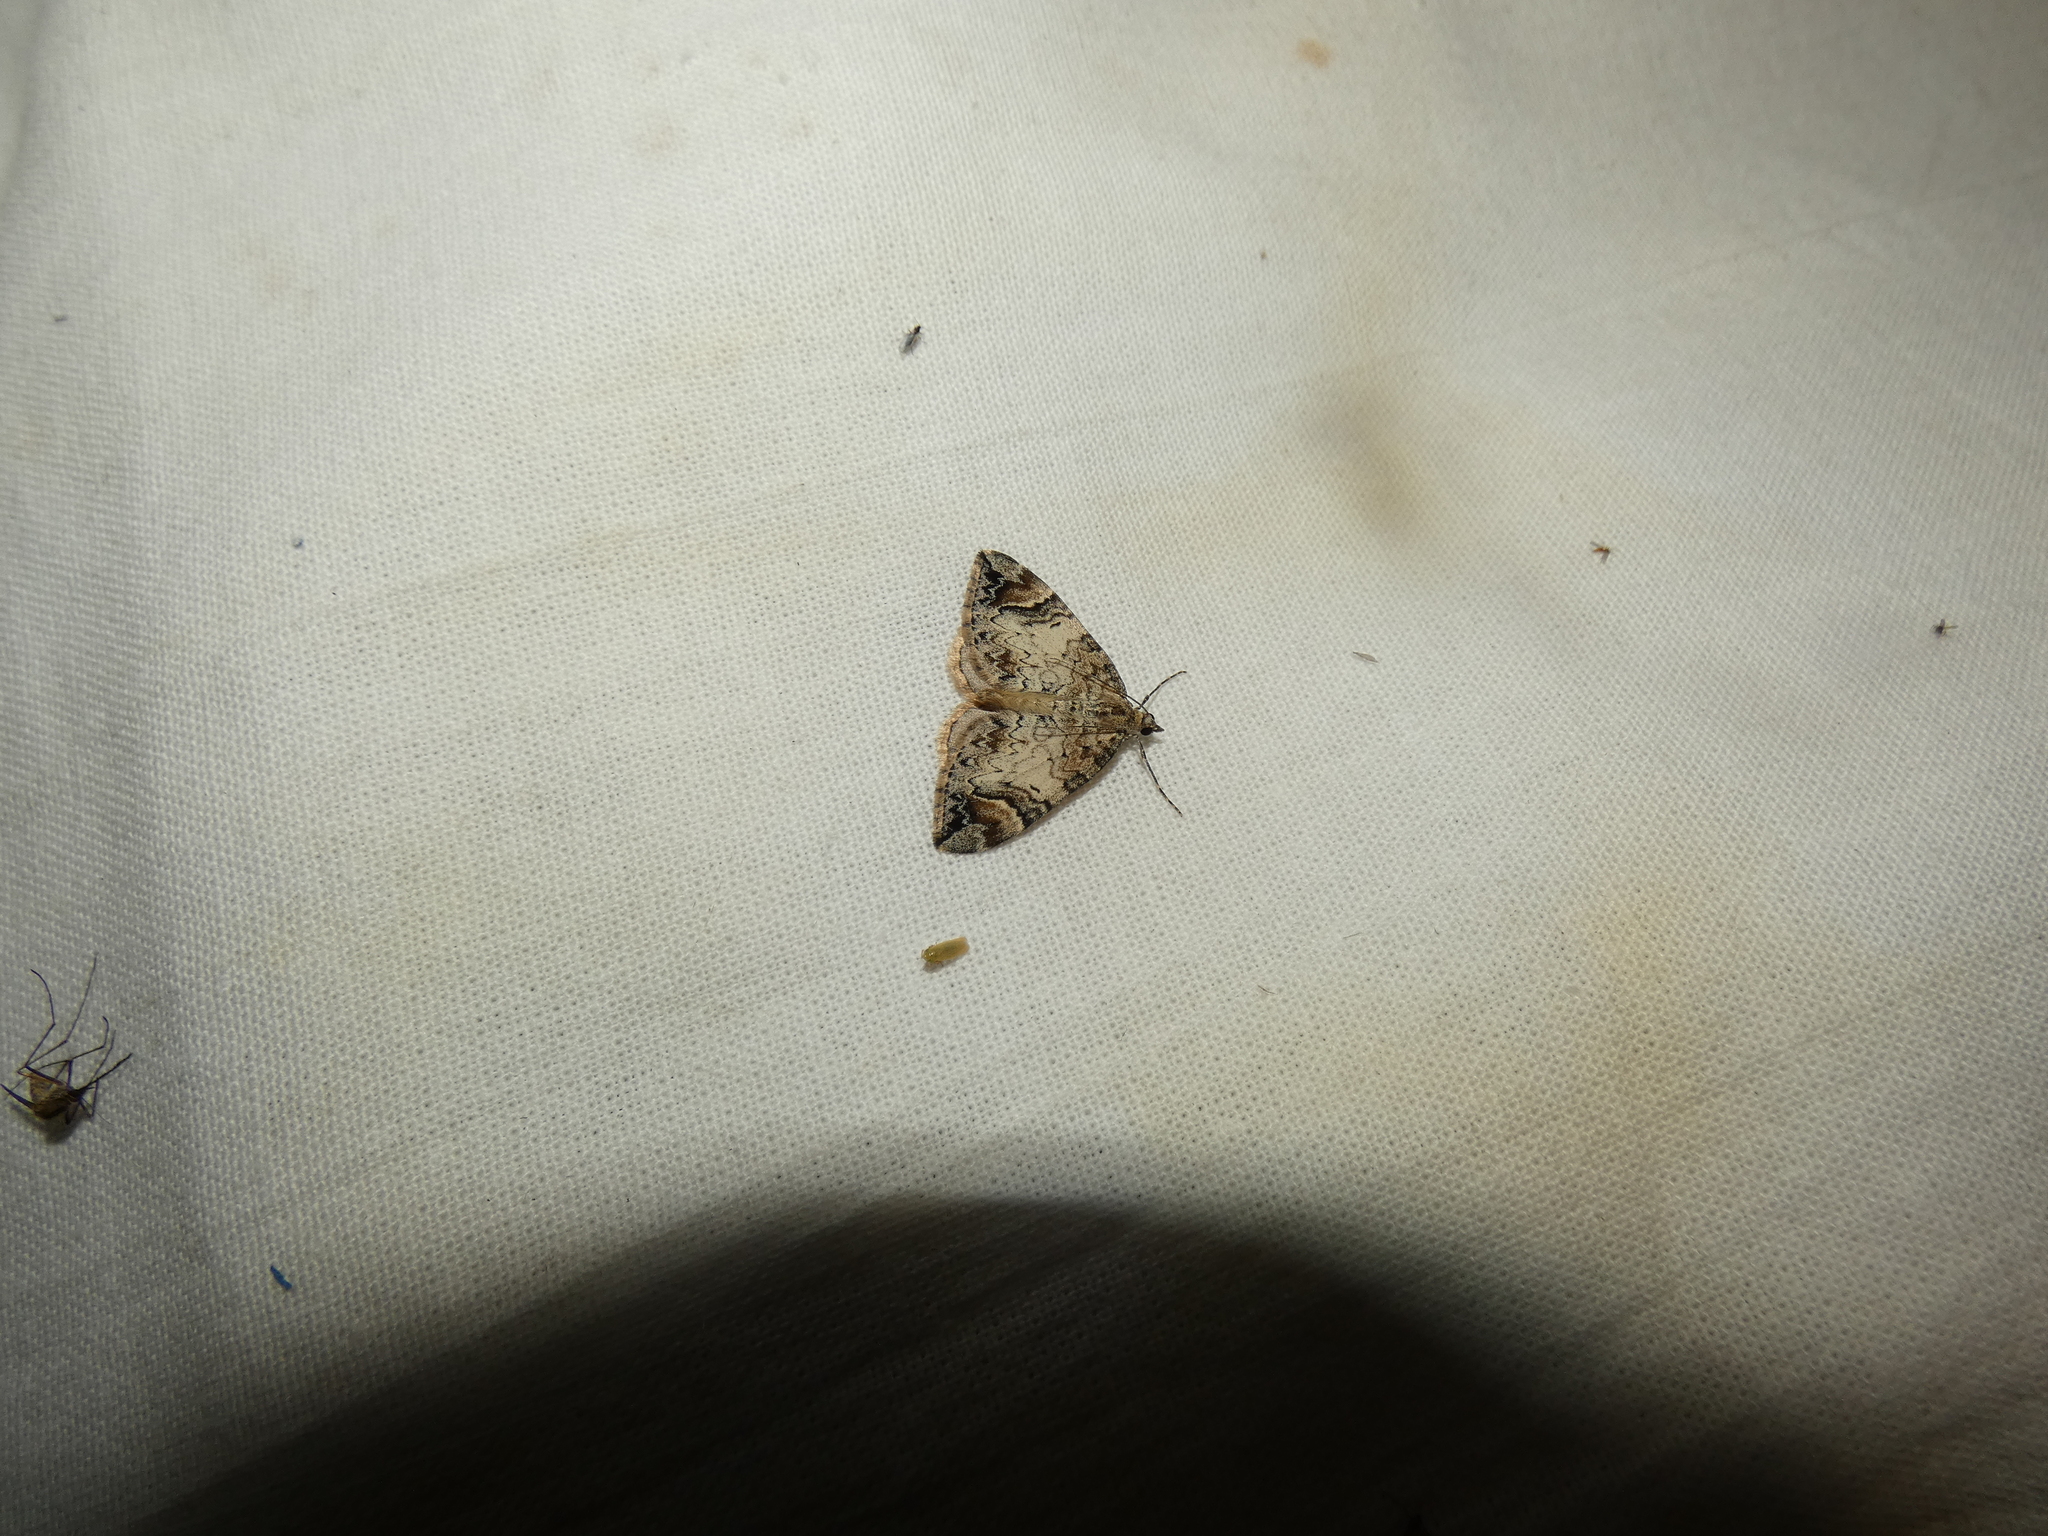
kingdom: Animalia
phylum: Arthropoda
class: Insecta
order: Lepidoptera
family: Geometridae
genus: Dysstroma
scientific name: Dysstroma citrata
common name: Dark marbled carpet
